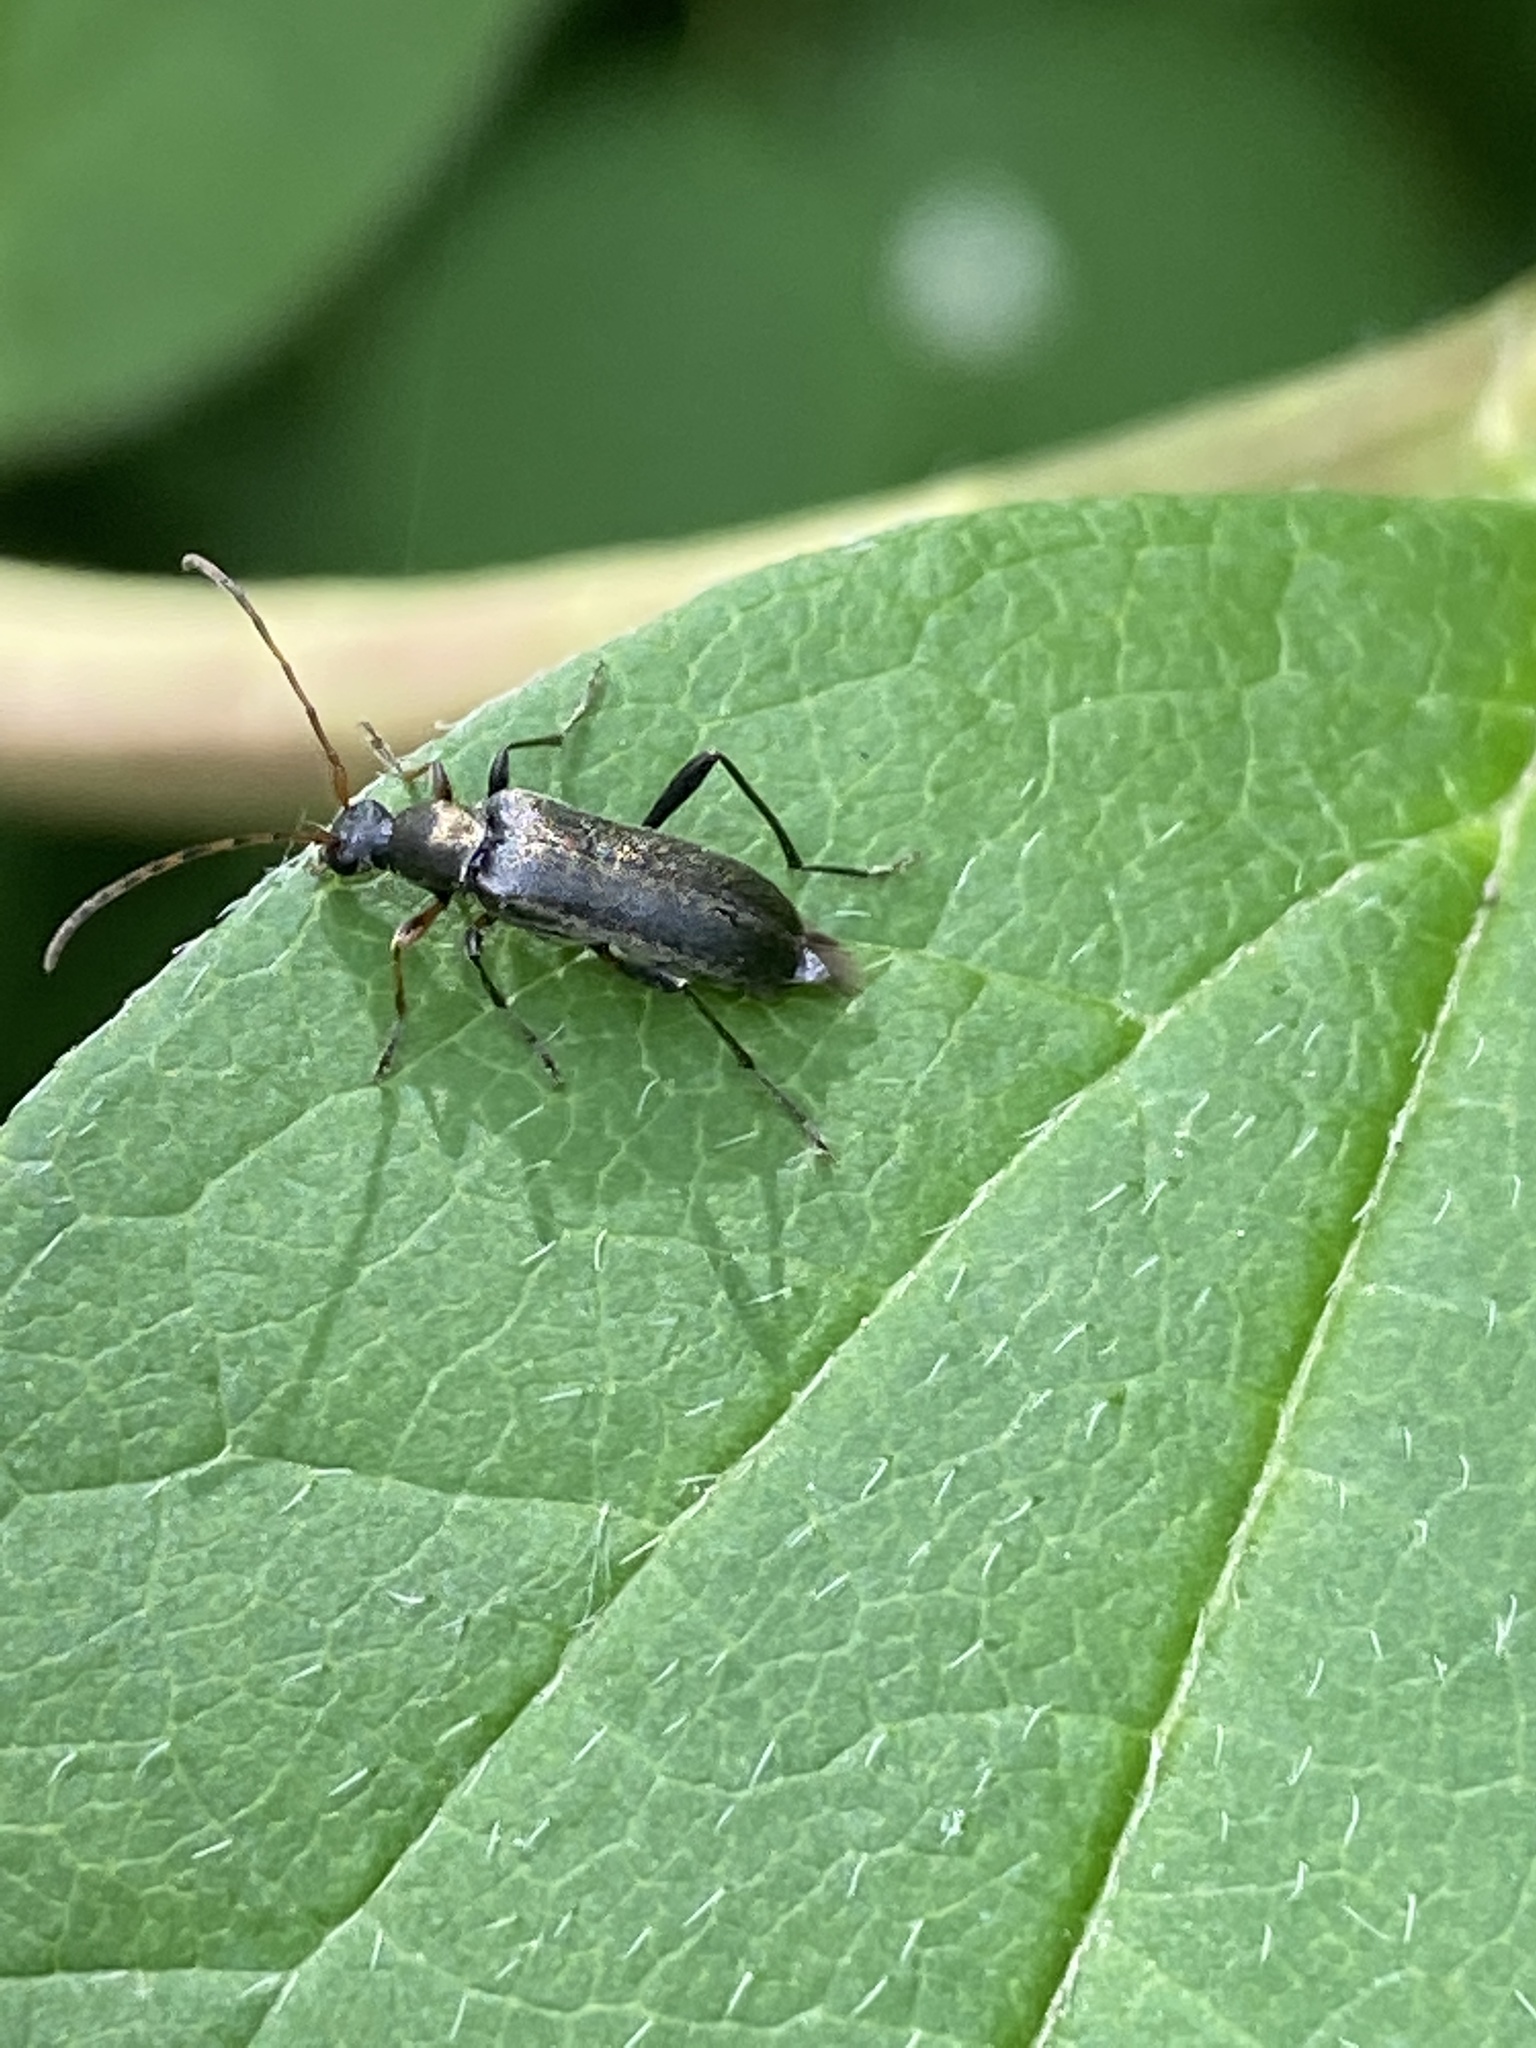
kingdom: Animalia
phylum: Arthropoda
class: Insecta
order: Coleoptera
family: Cerambycidae
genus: Grammoptera
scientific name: Grammoptera ruficornis
